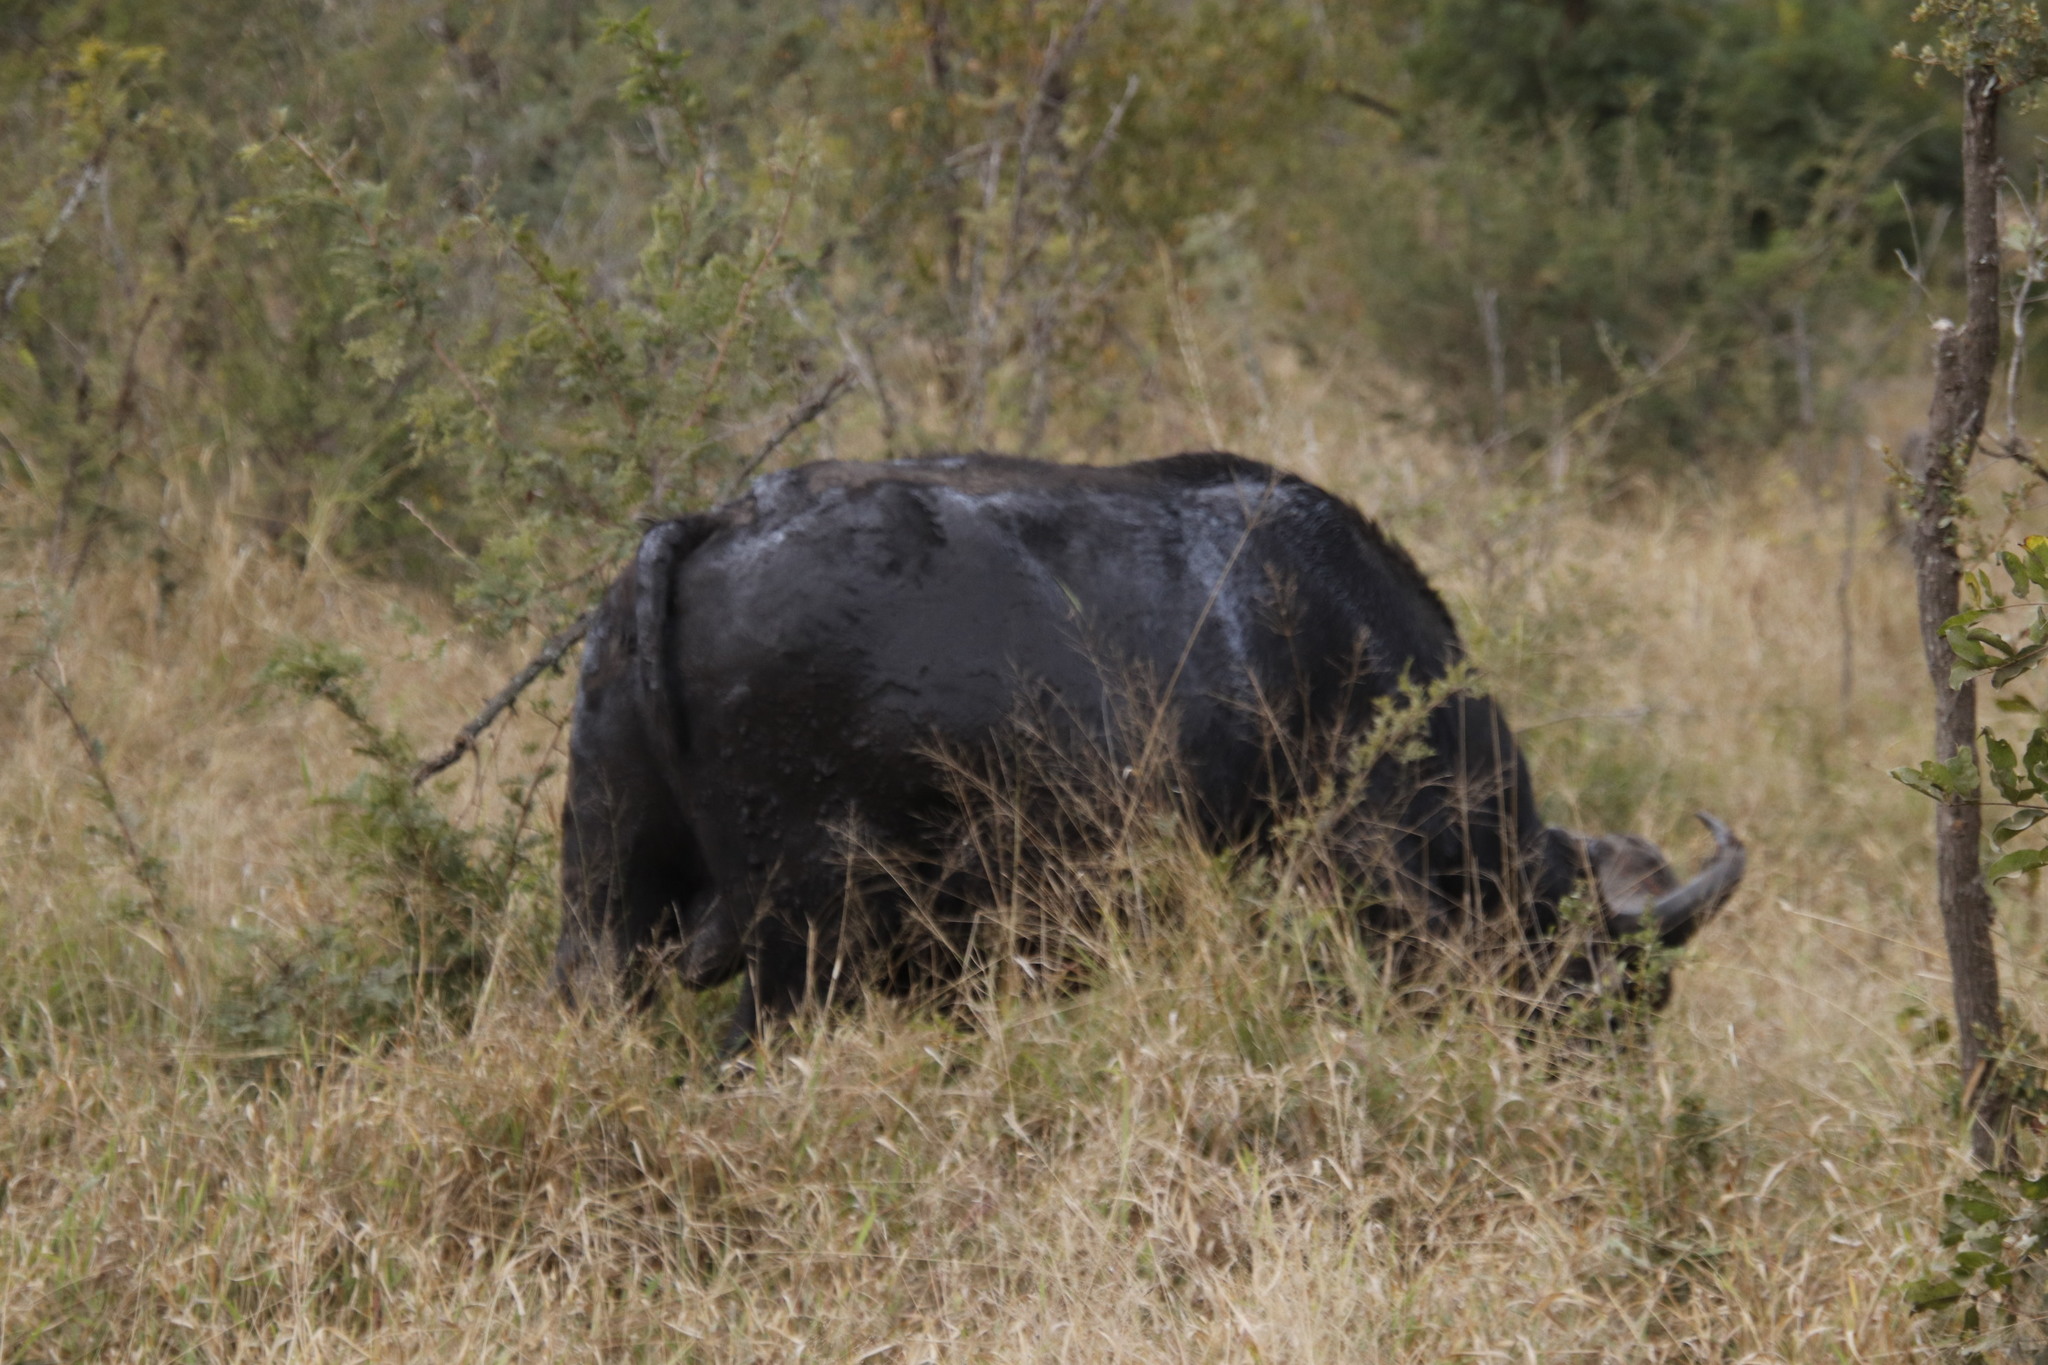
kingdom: Animalia
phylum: Chordata
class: Mammalia
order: Artiodactyla
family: Bovidae
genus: Syncerus
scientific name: Syncerus caffer
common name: African buffalo
